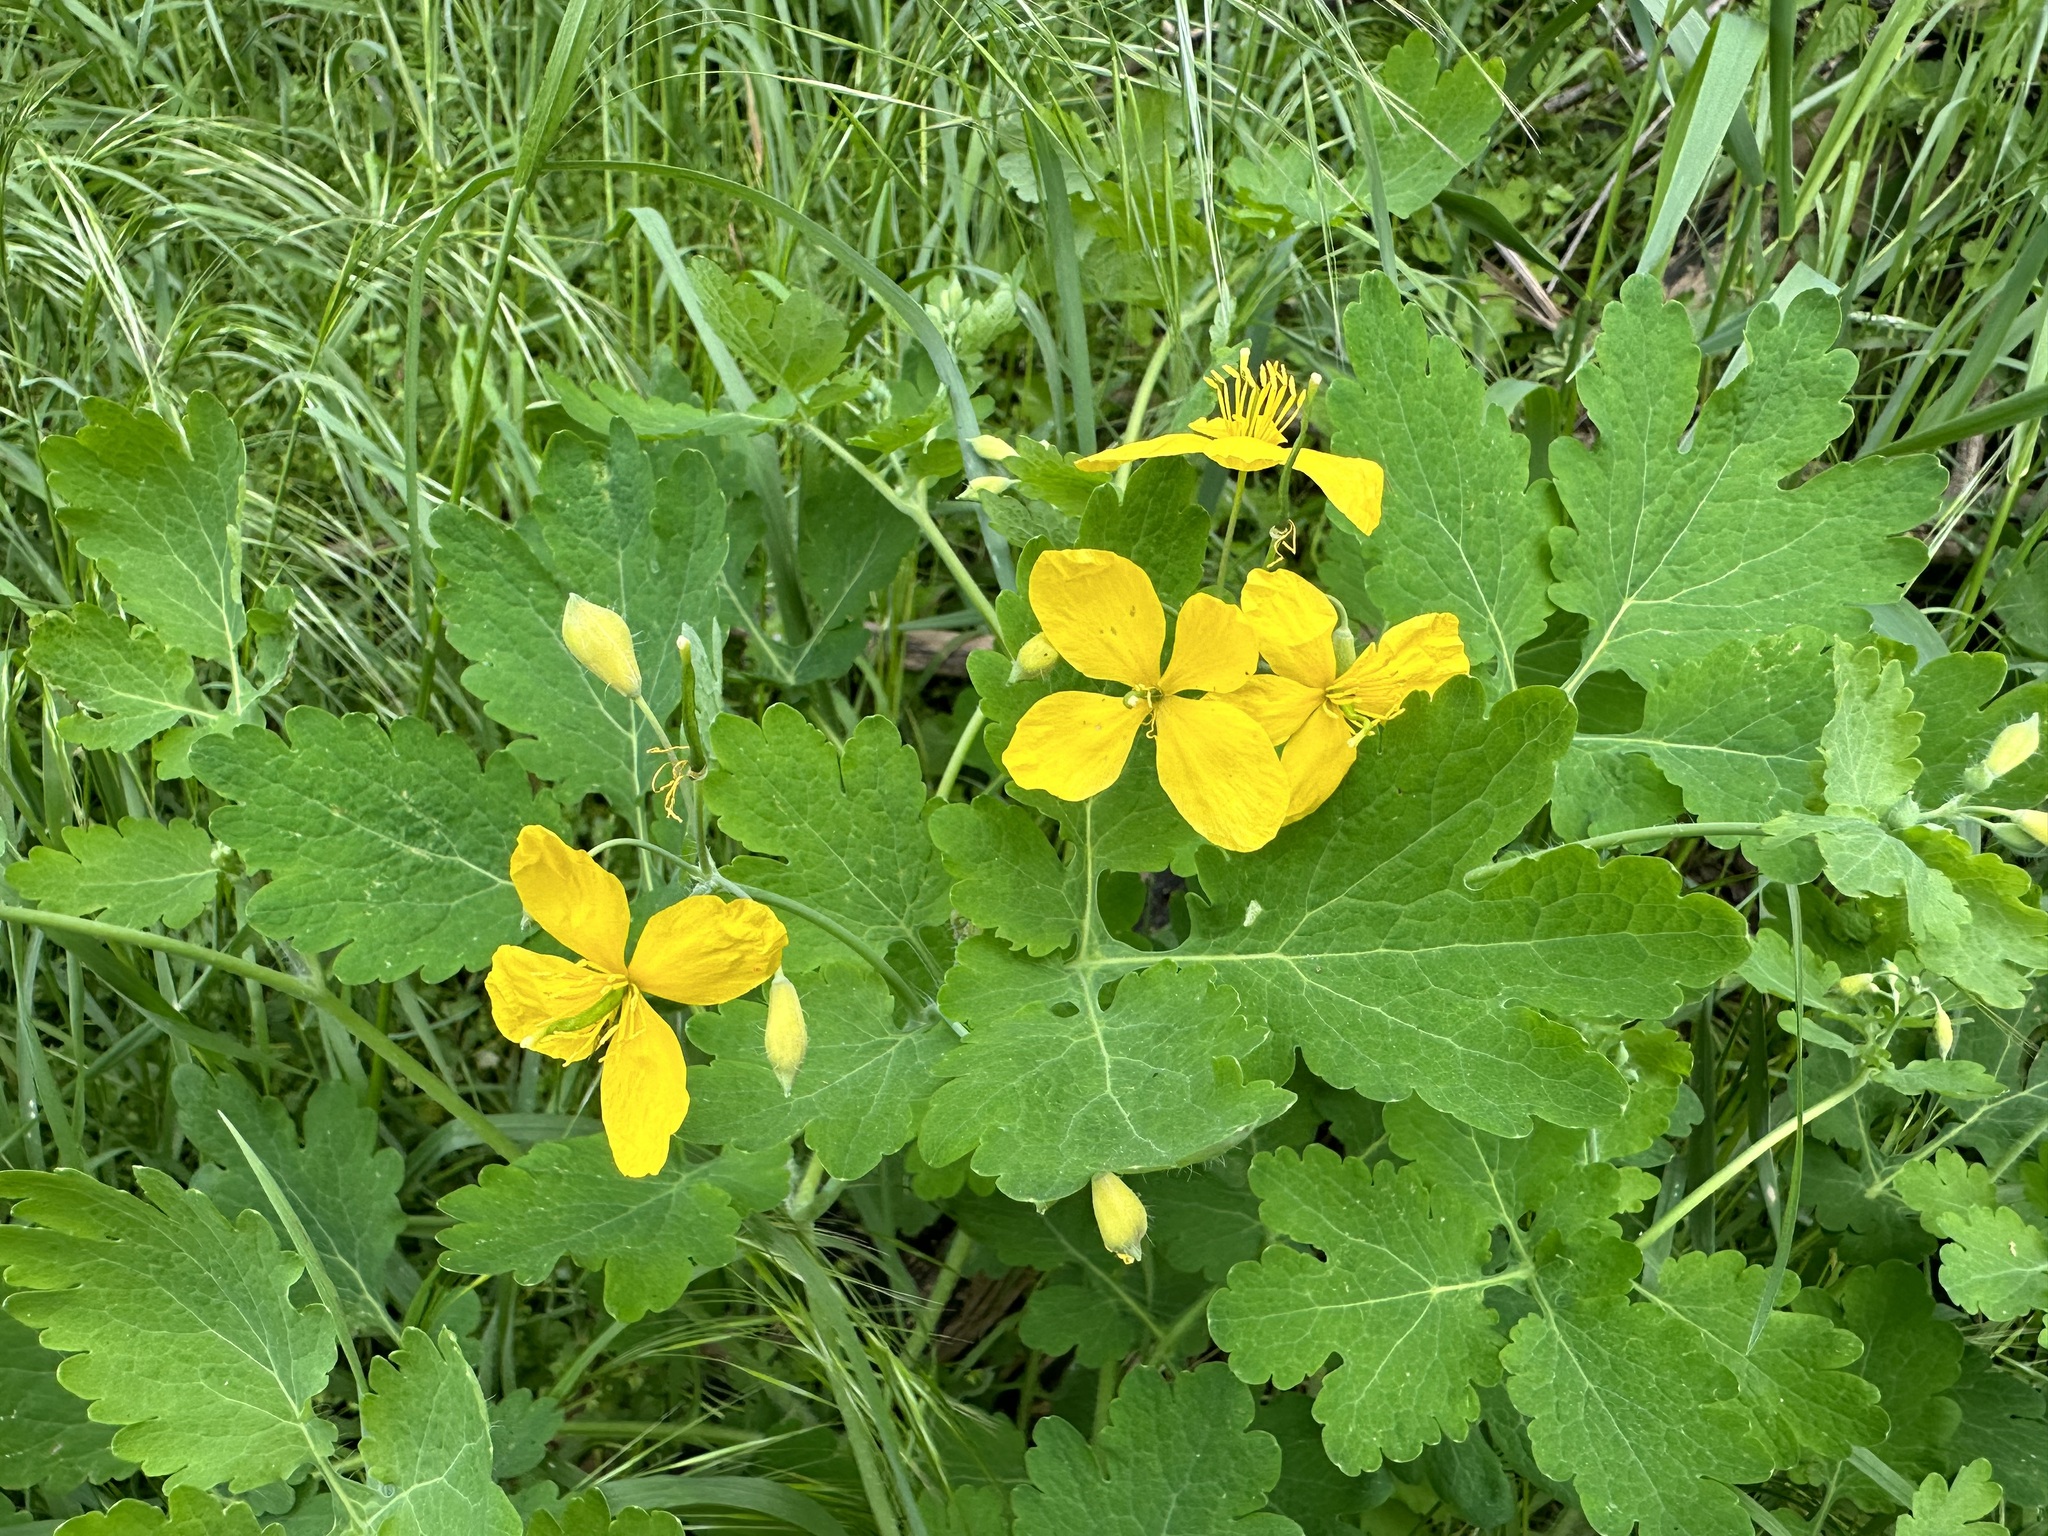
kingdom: Plantae
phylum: Tracheophyta
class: Magnoliopsida
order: Ranunculales
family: Papaveraceae
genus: Chelidonium
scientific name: Chelidonium majus
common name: Greater celandine
